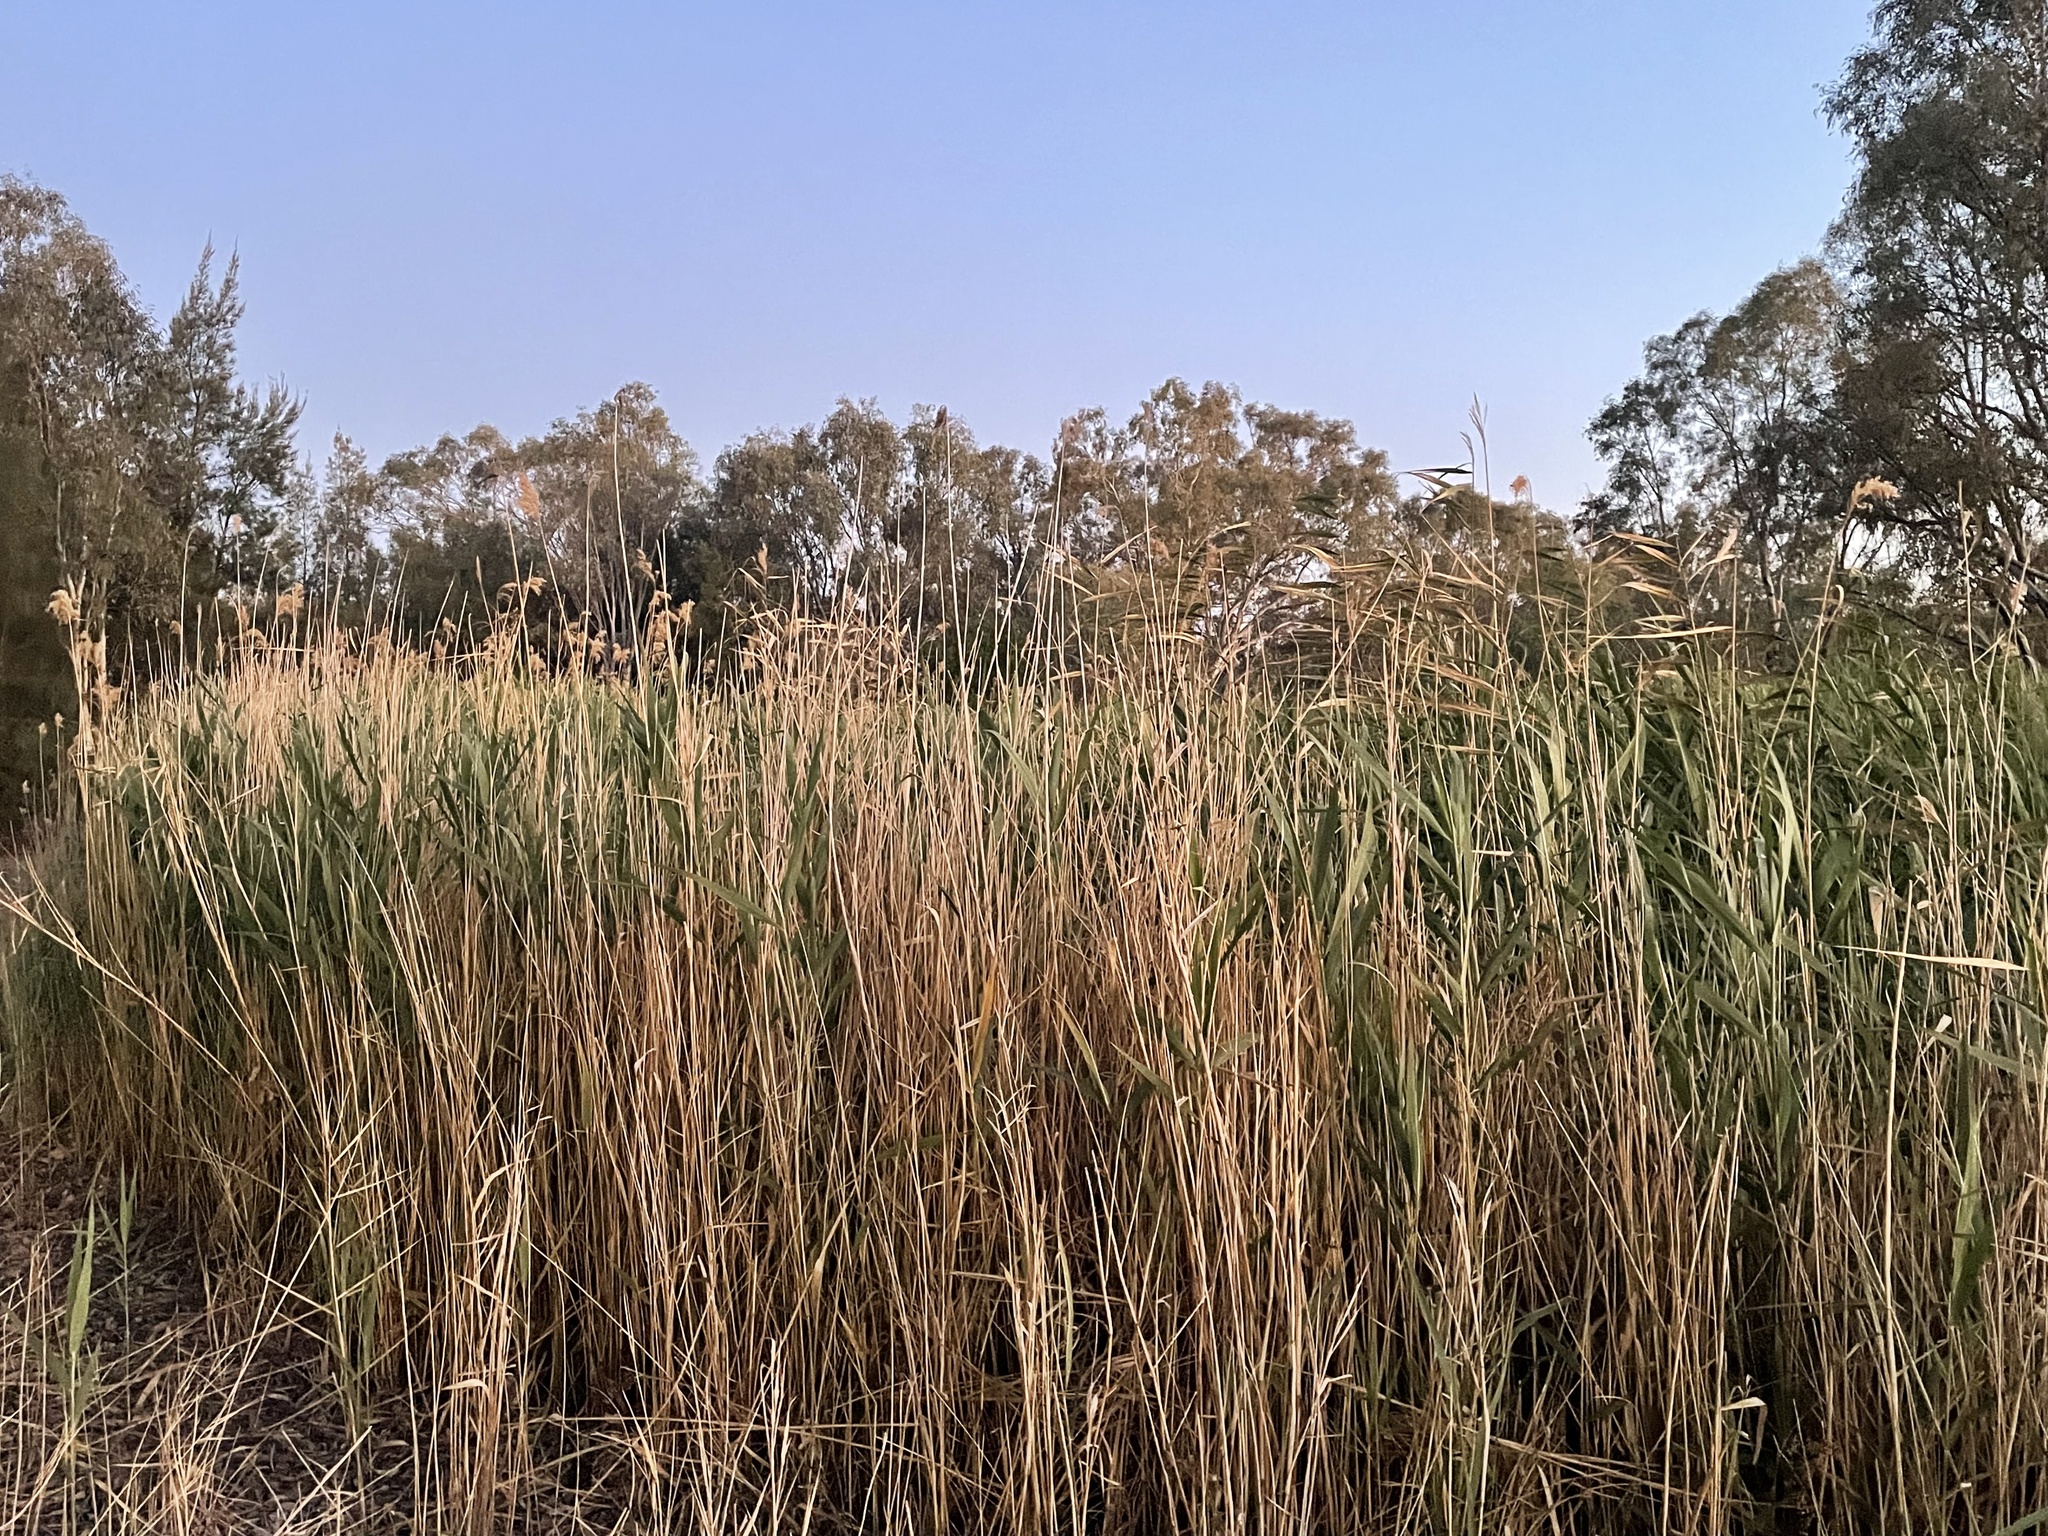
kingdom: Plantae
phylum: Tracheophyta
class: Liliopsida
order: Poales
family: Poaceae
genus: Phragmites
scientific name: Phragmites australis
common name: Common reed
